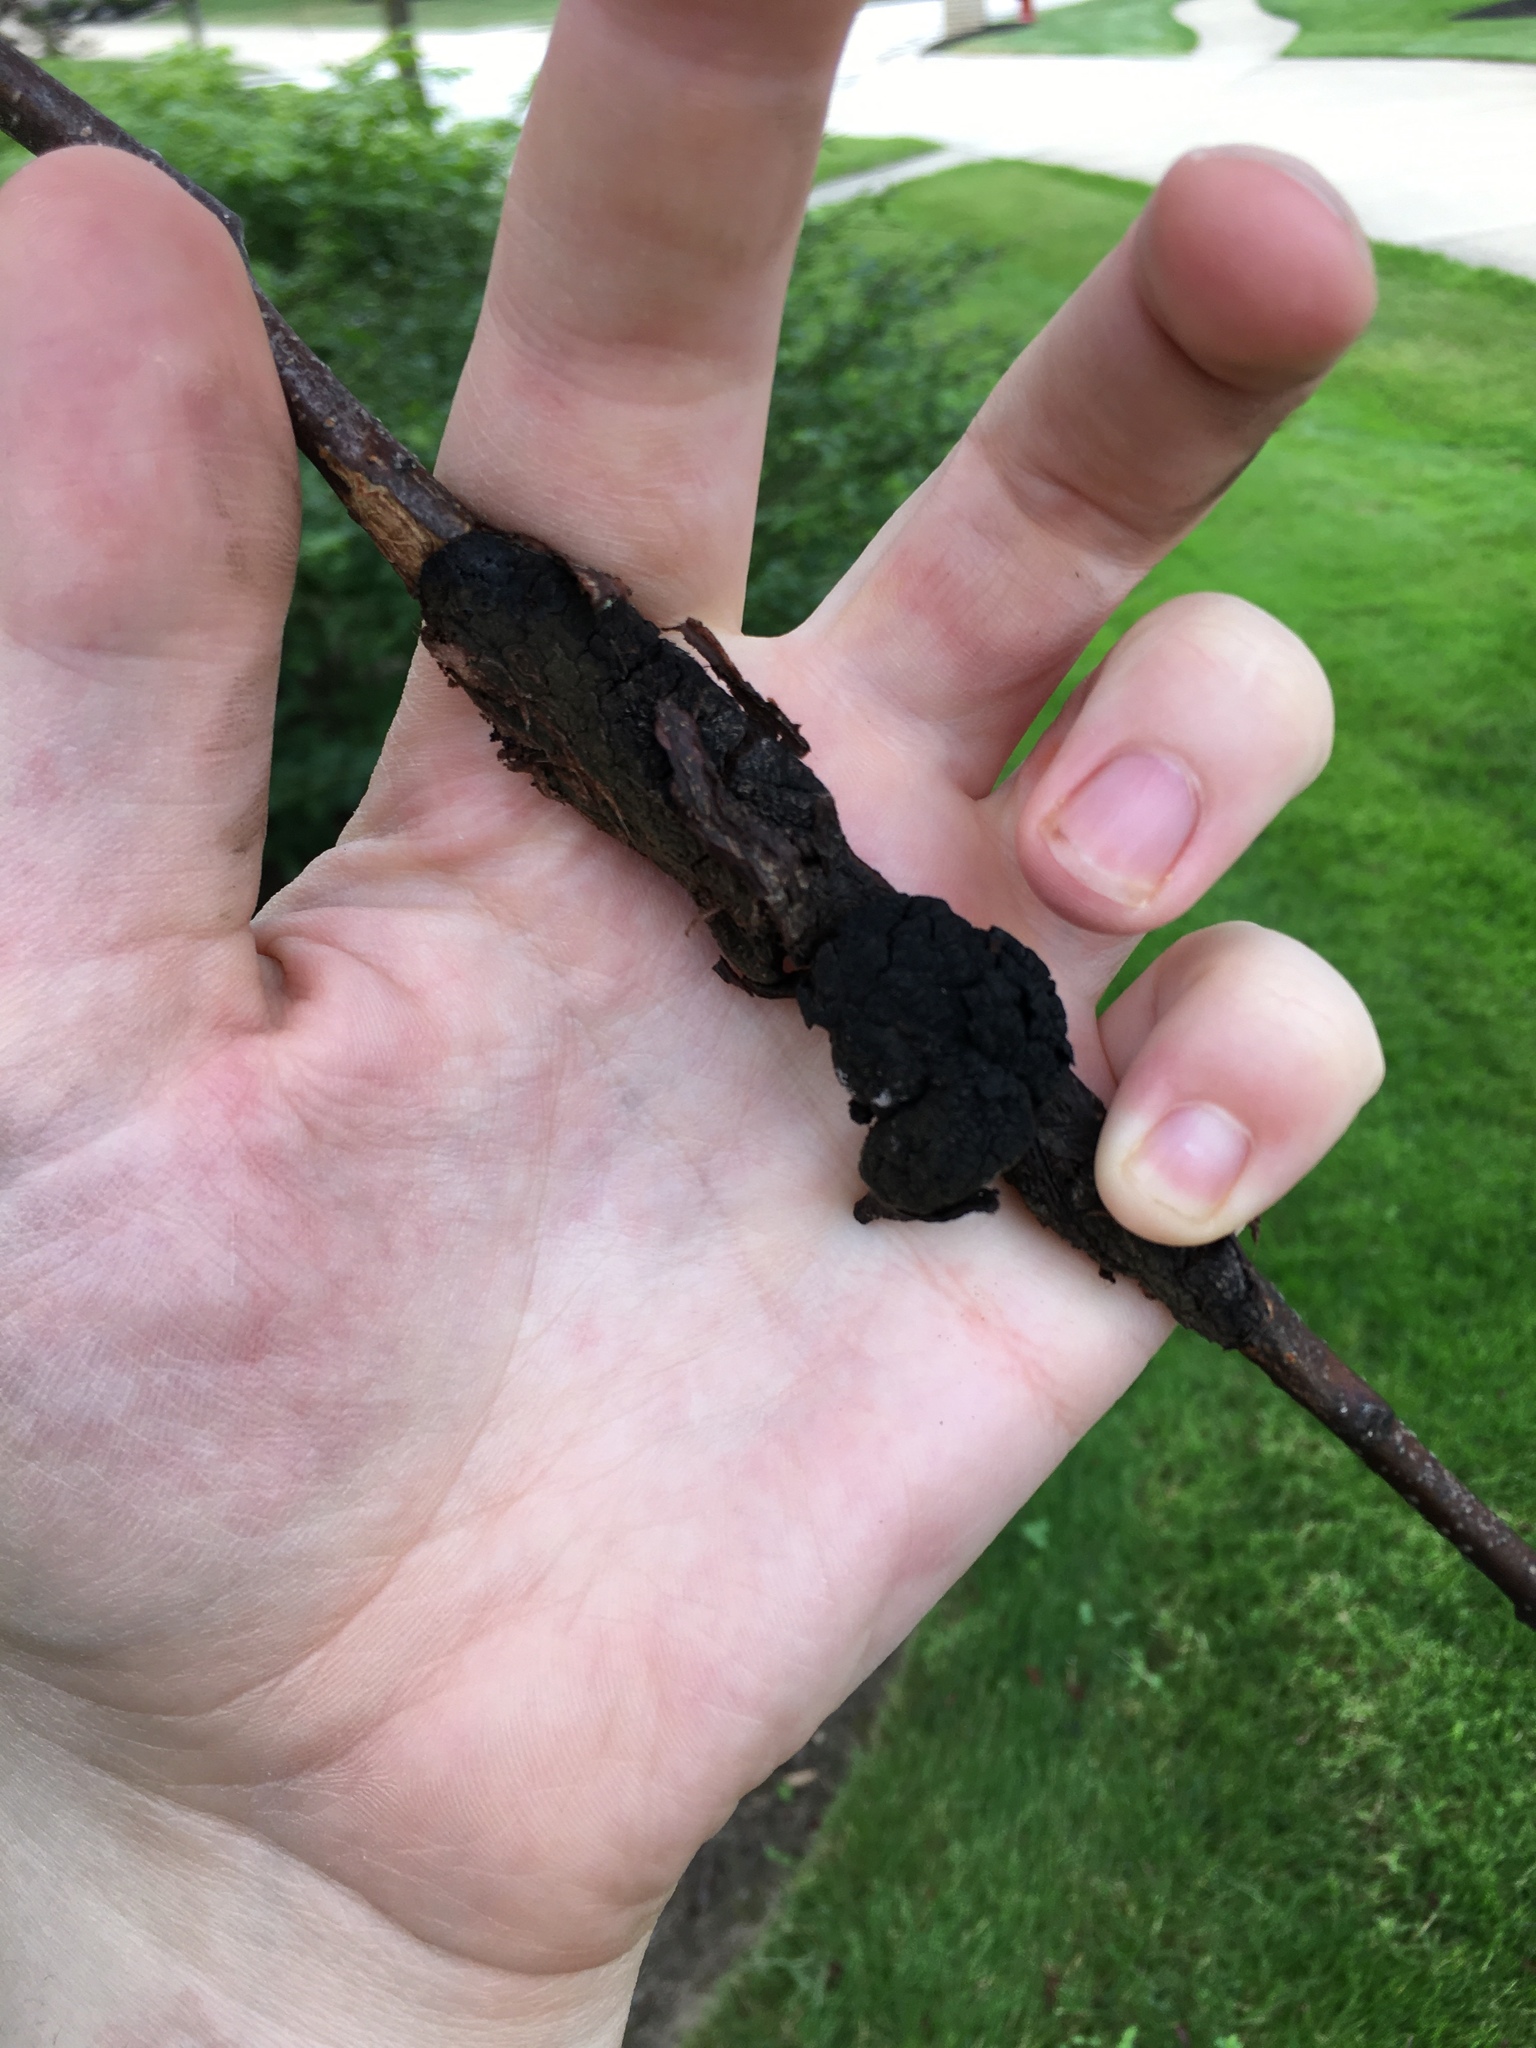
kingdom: Fungi
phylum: Ascomycota
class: Dothideomycetes
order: Venturiales
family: Venturiaceae
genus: Apiosporina
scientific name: Apiosporina morbosa
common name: Black knot
